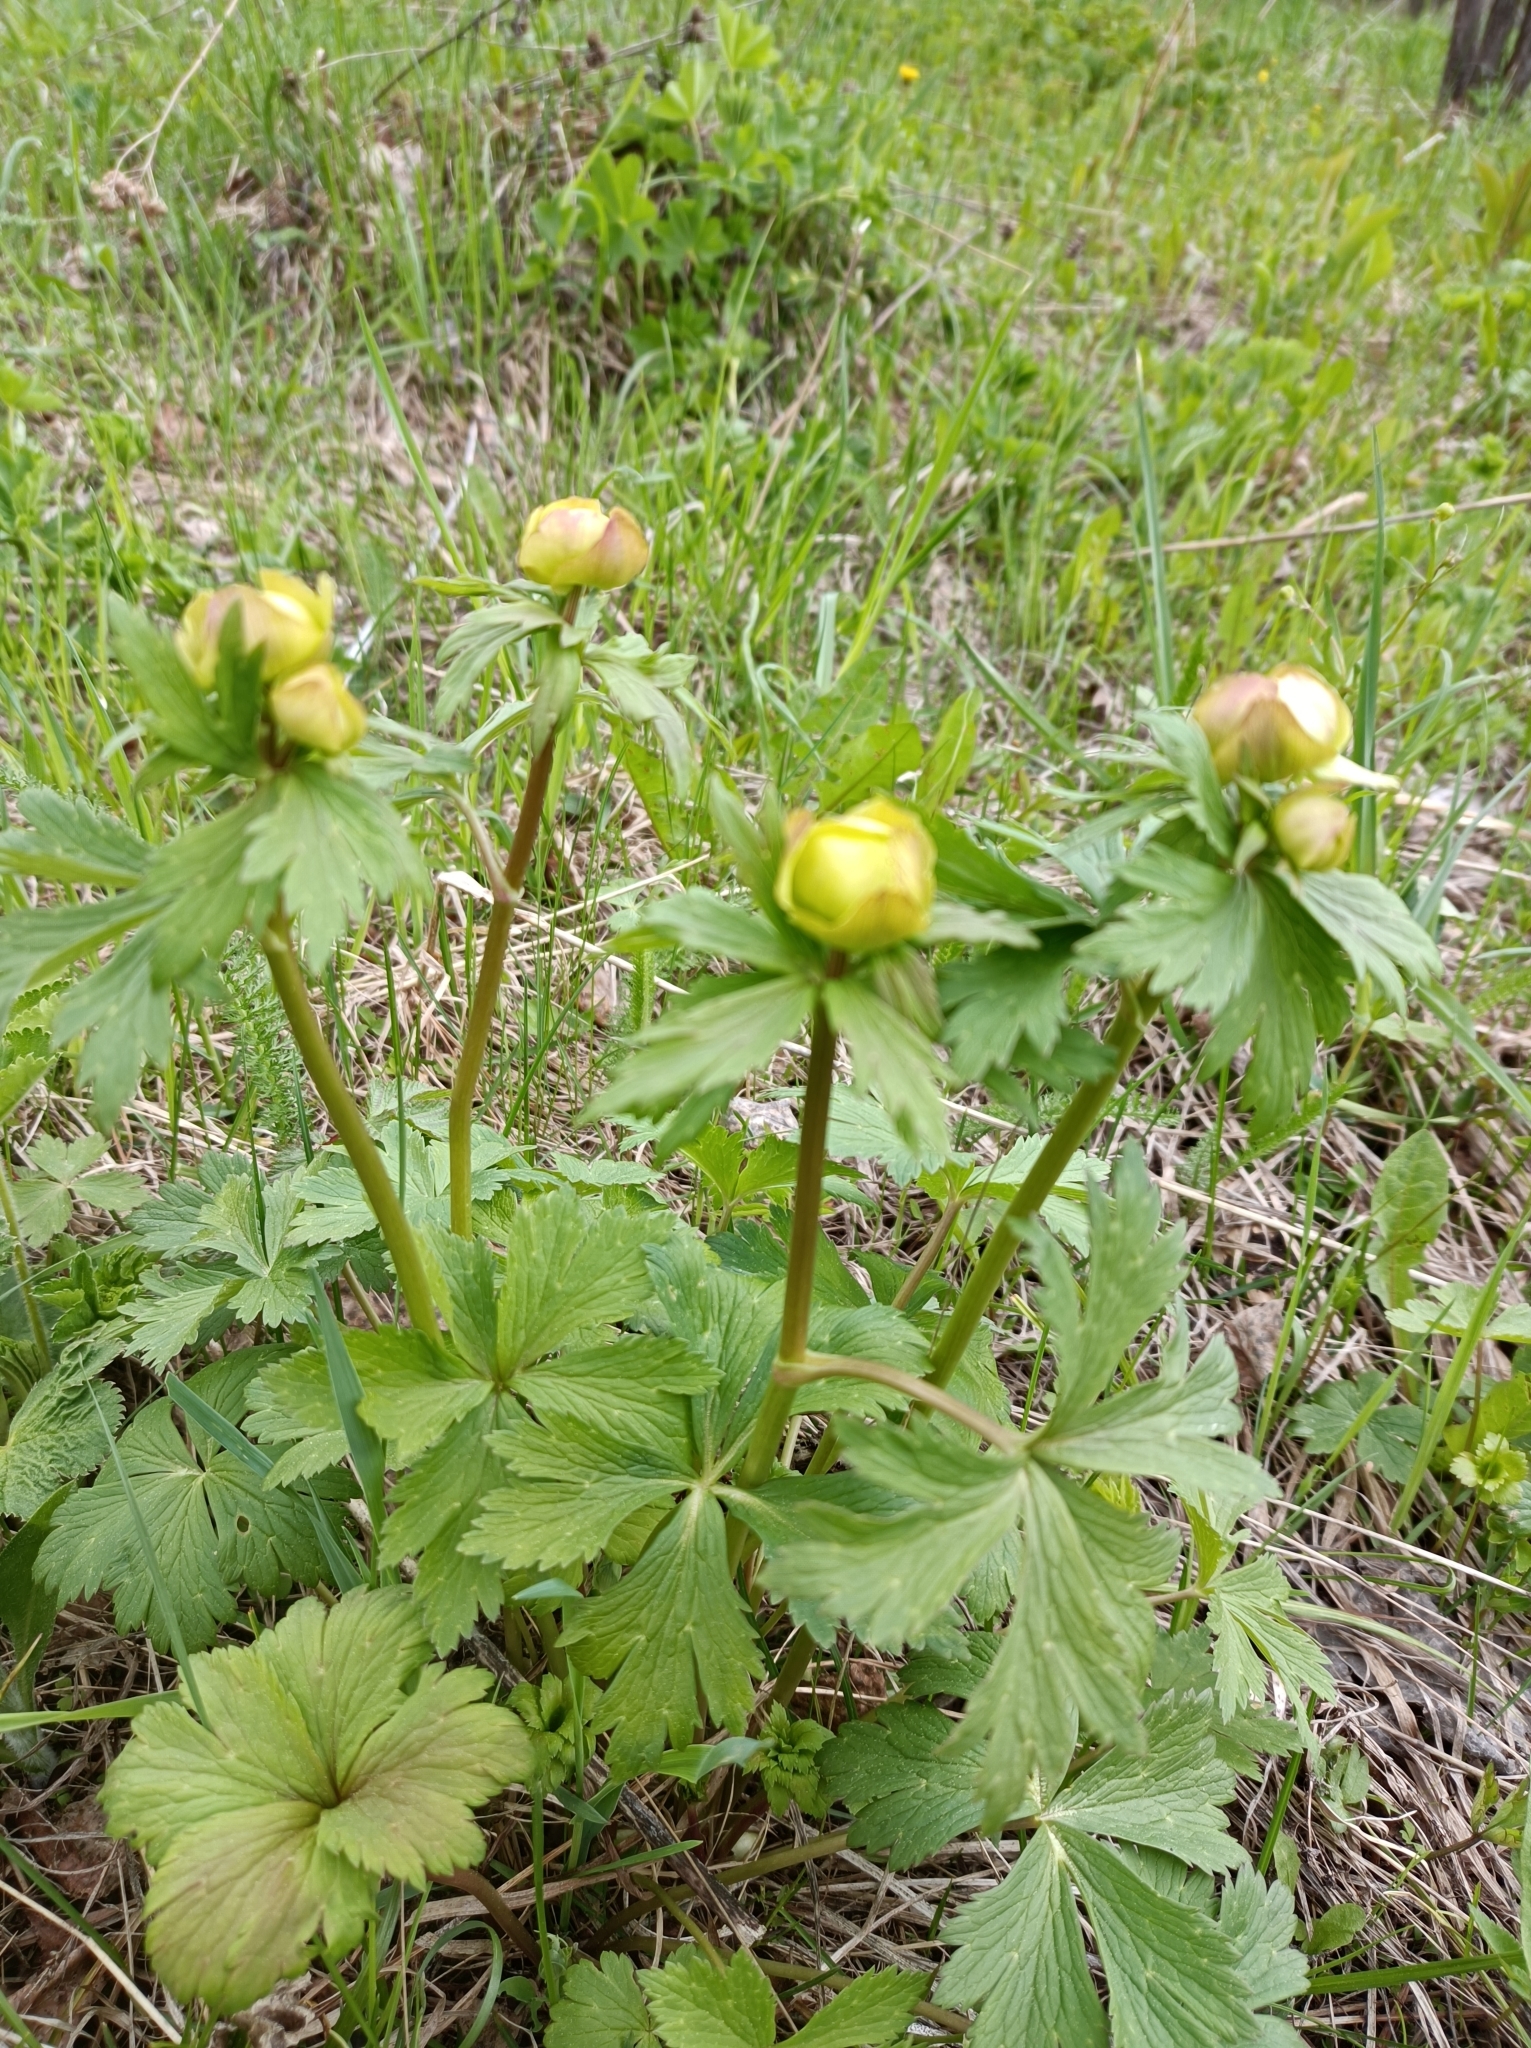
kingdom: Plantae
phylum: Tracheophyta
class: Magnoliopsida
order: Ranunculales
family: Ranunculaceae
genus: Trollius
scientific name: Trollius europaeus
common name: European globeflower
